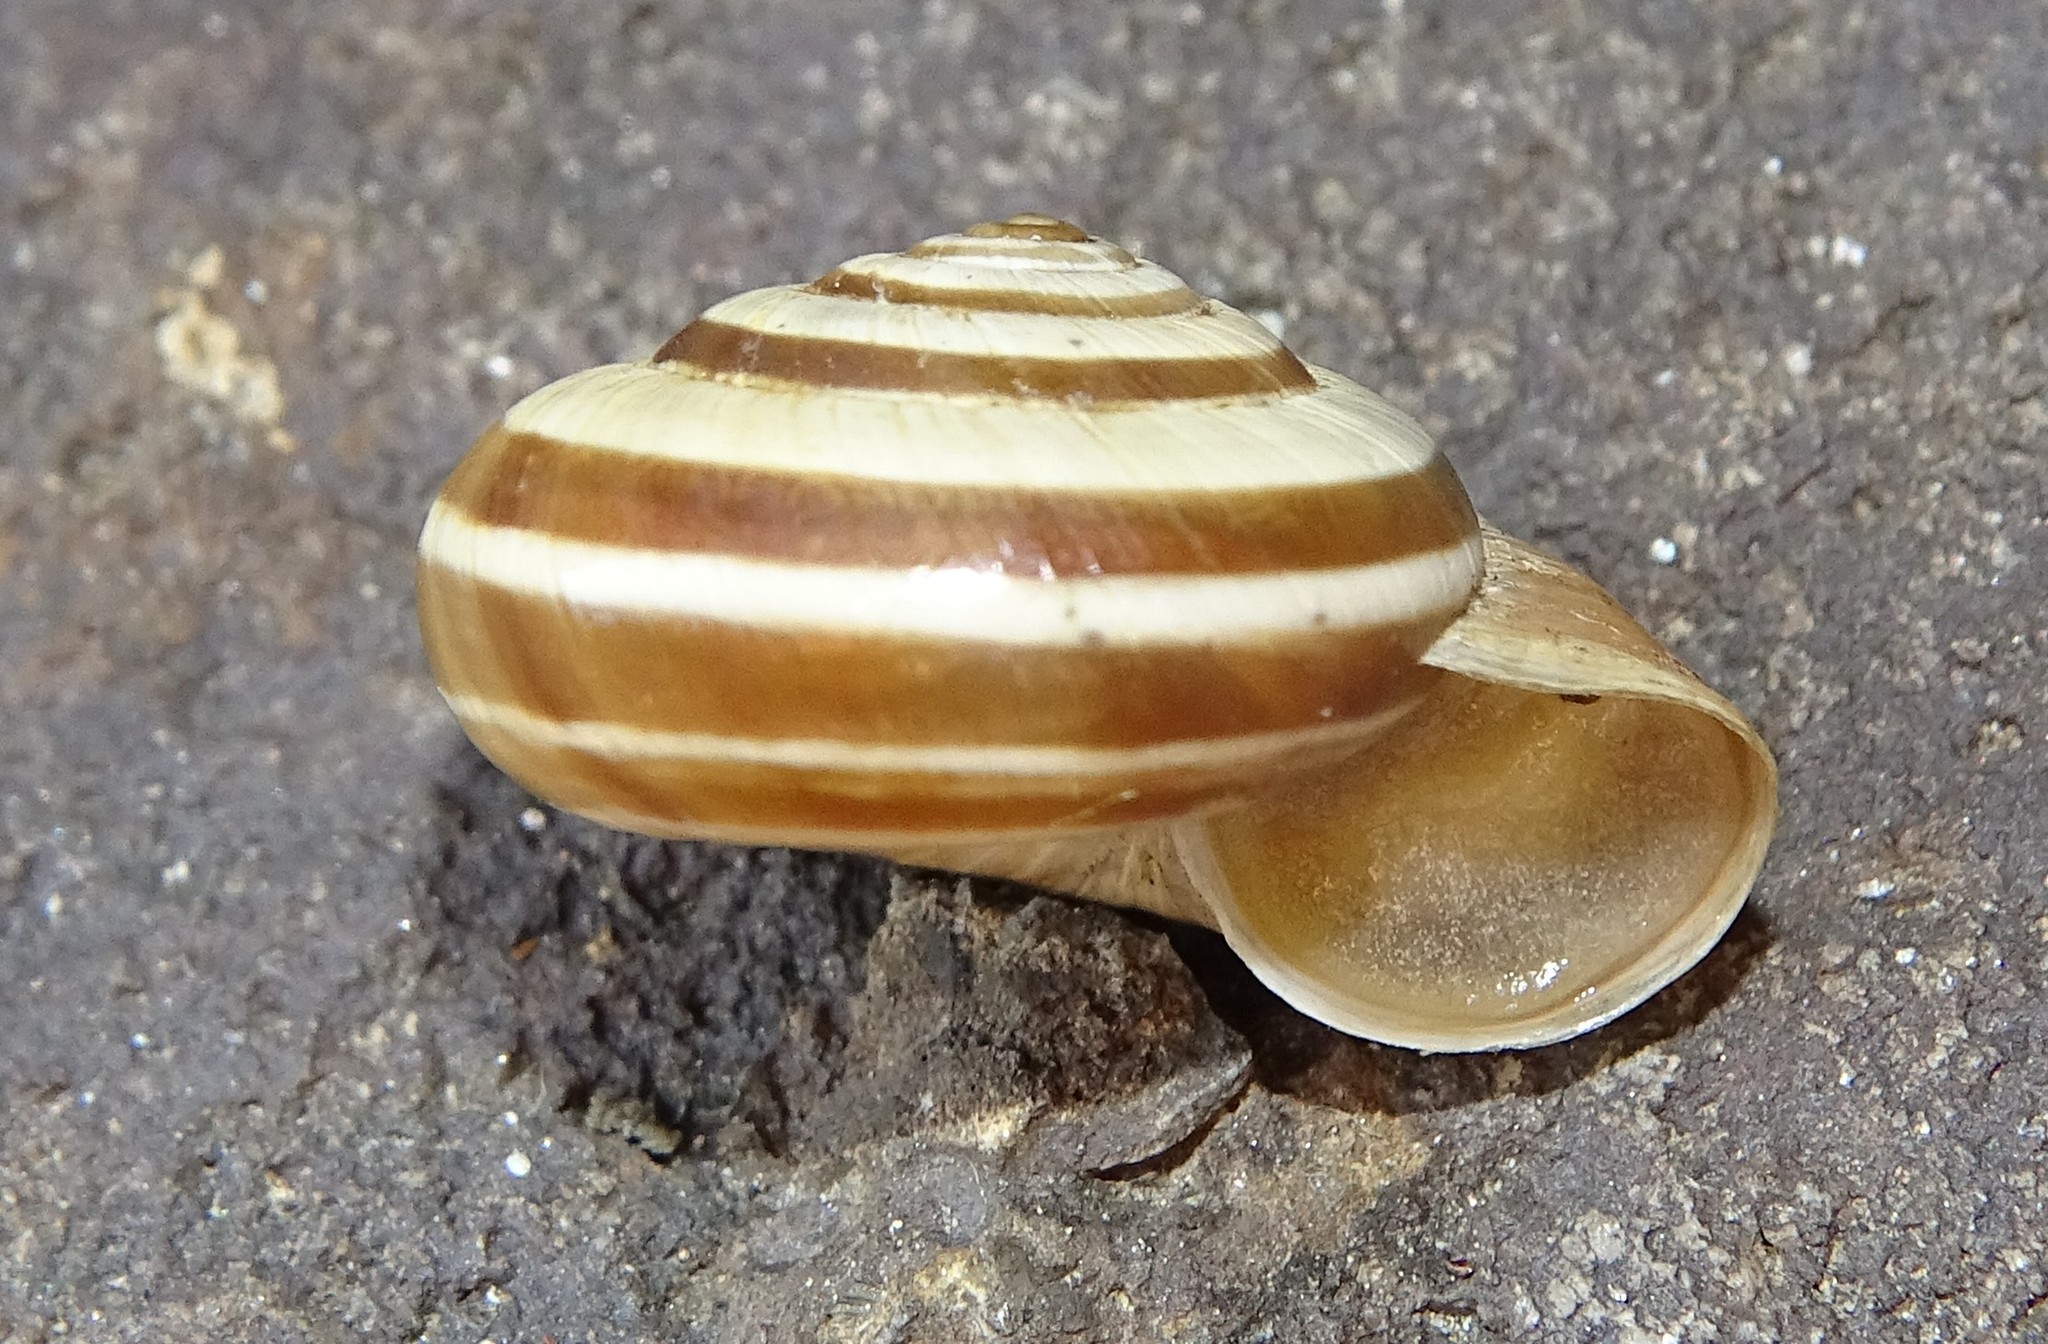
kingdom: Animalia
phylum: Mollusca
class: Gastropoda
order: Stylommatophora
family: Geomitridae
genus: Helicella
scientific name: Helicella itala
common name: Heath snail
